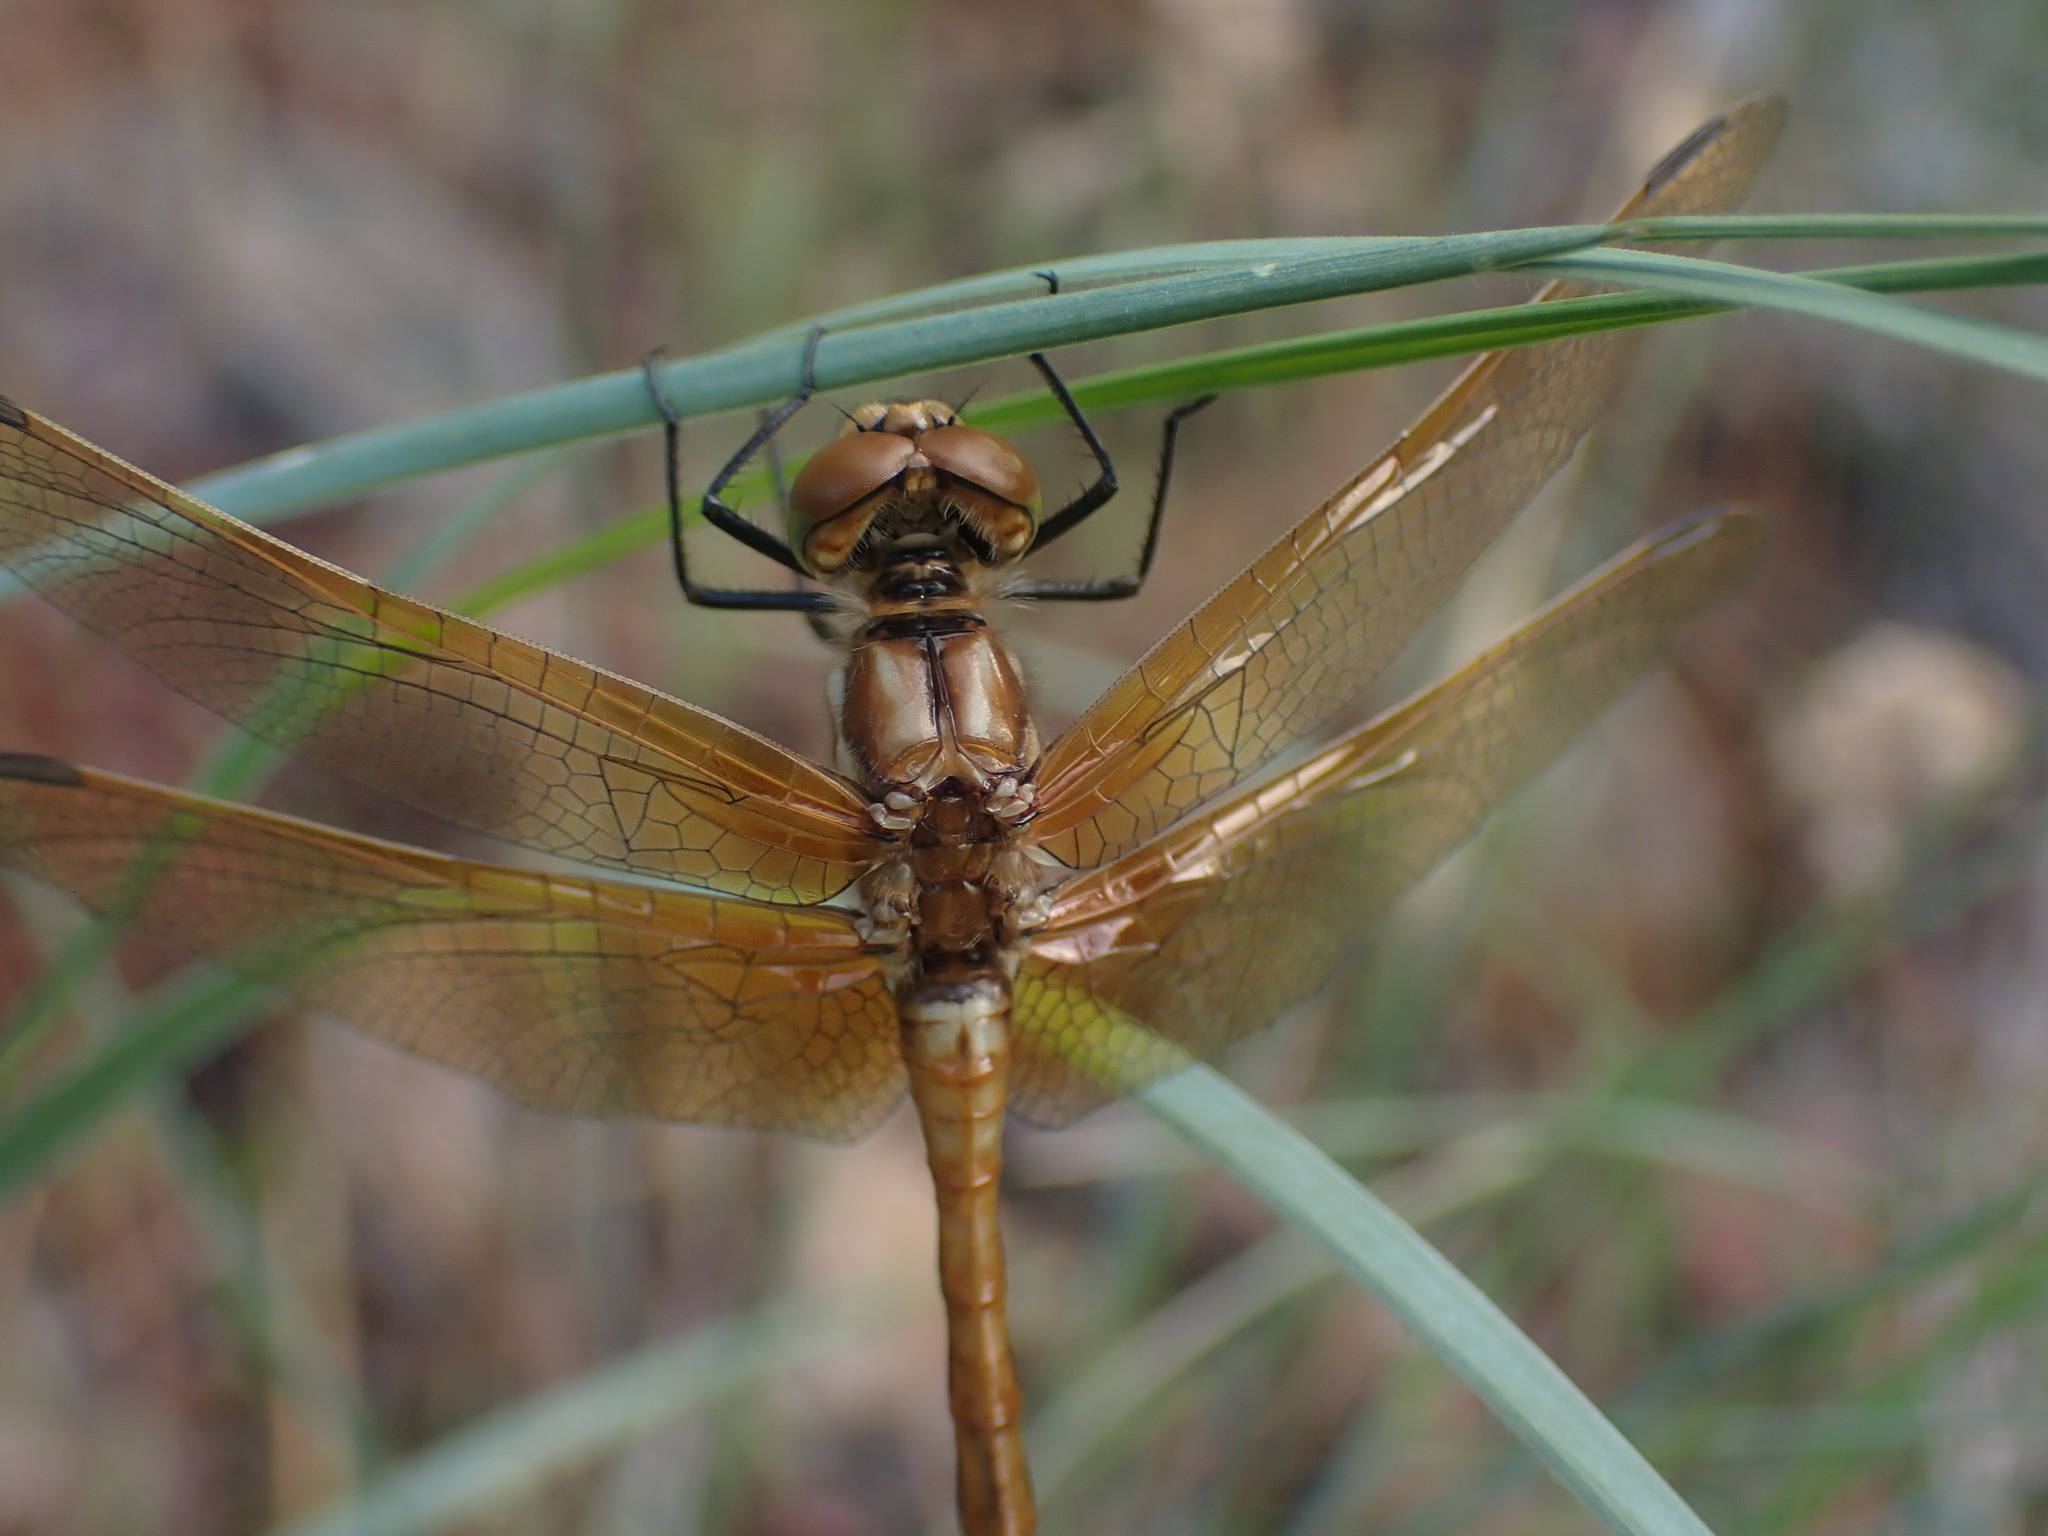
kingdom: Animalia
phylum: Arthropoda
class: Insecta
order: Odonata
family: Libellulidae
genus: Sympetrum
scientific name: Sympetrum madidum
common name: Red-veined meadowhawk
